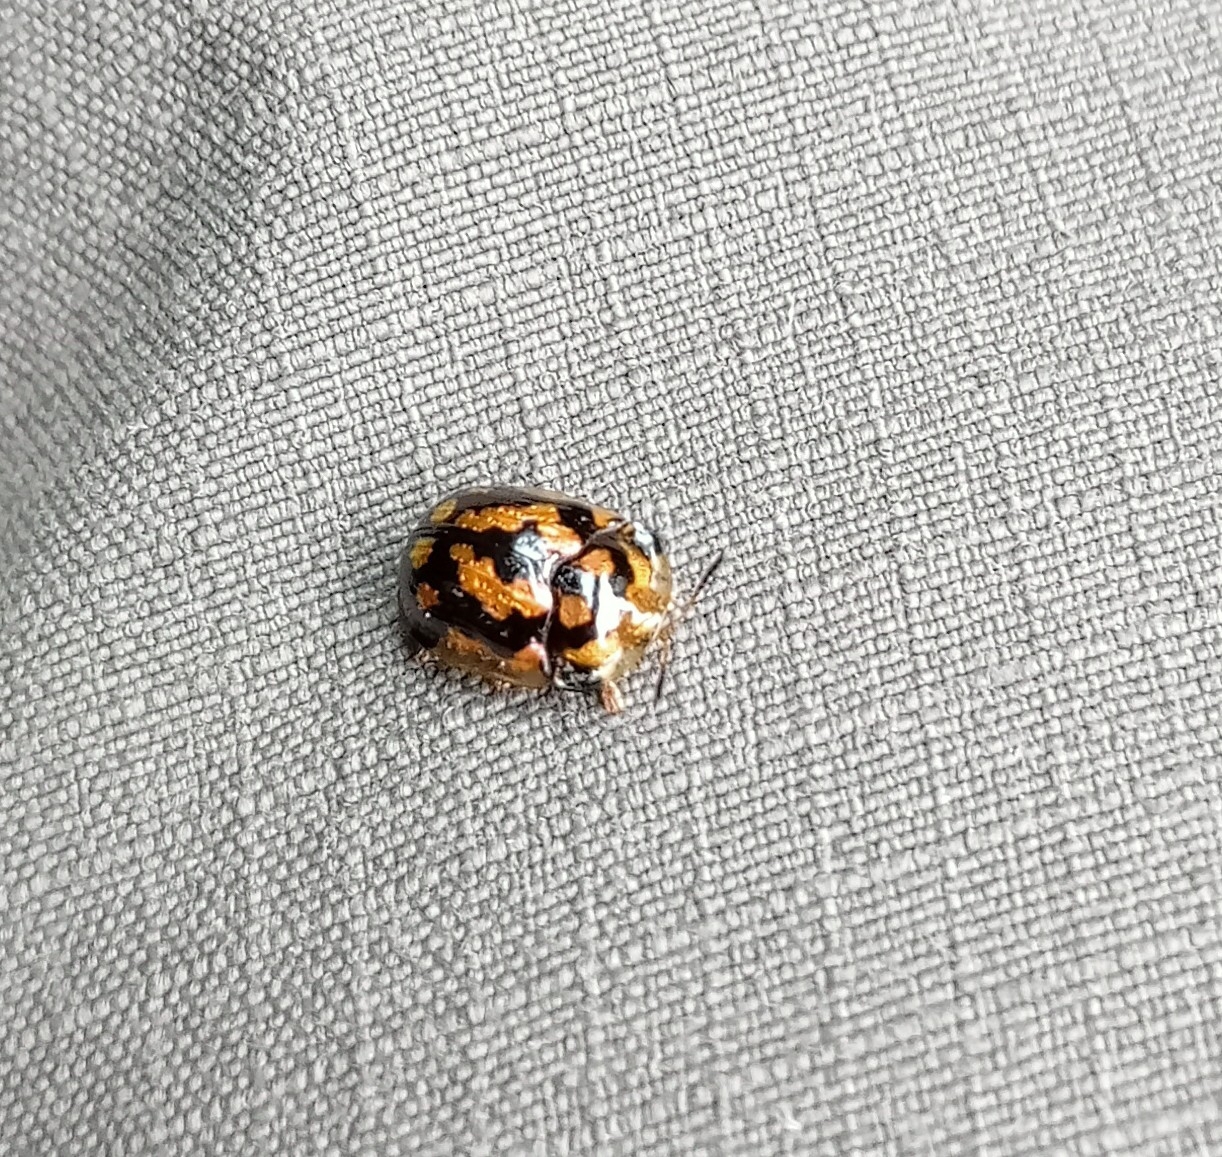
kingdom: Animalia
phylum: Arthropoda
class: Insecta
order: Coleoptera
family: Chrysomelidae
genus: Glyphocassis
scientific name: Glyphocassis trilineata
